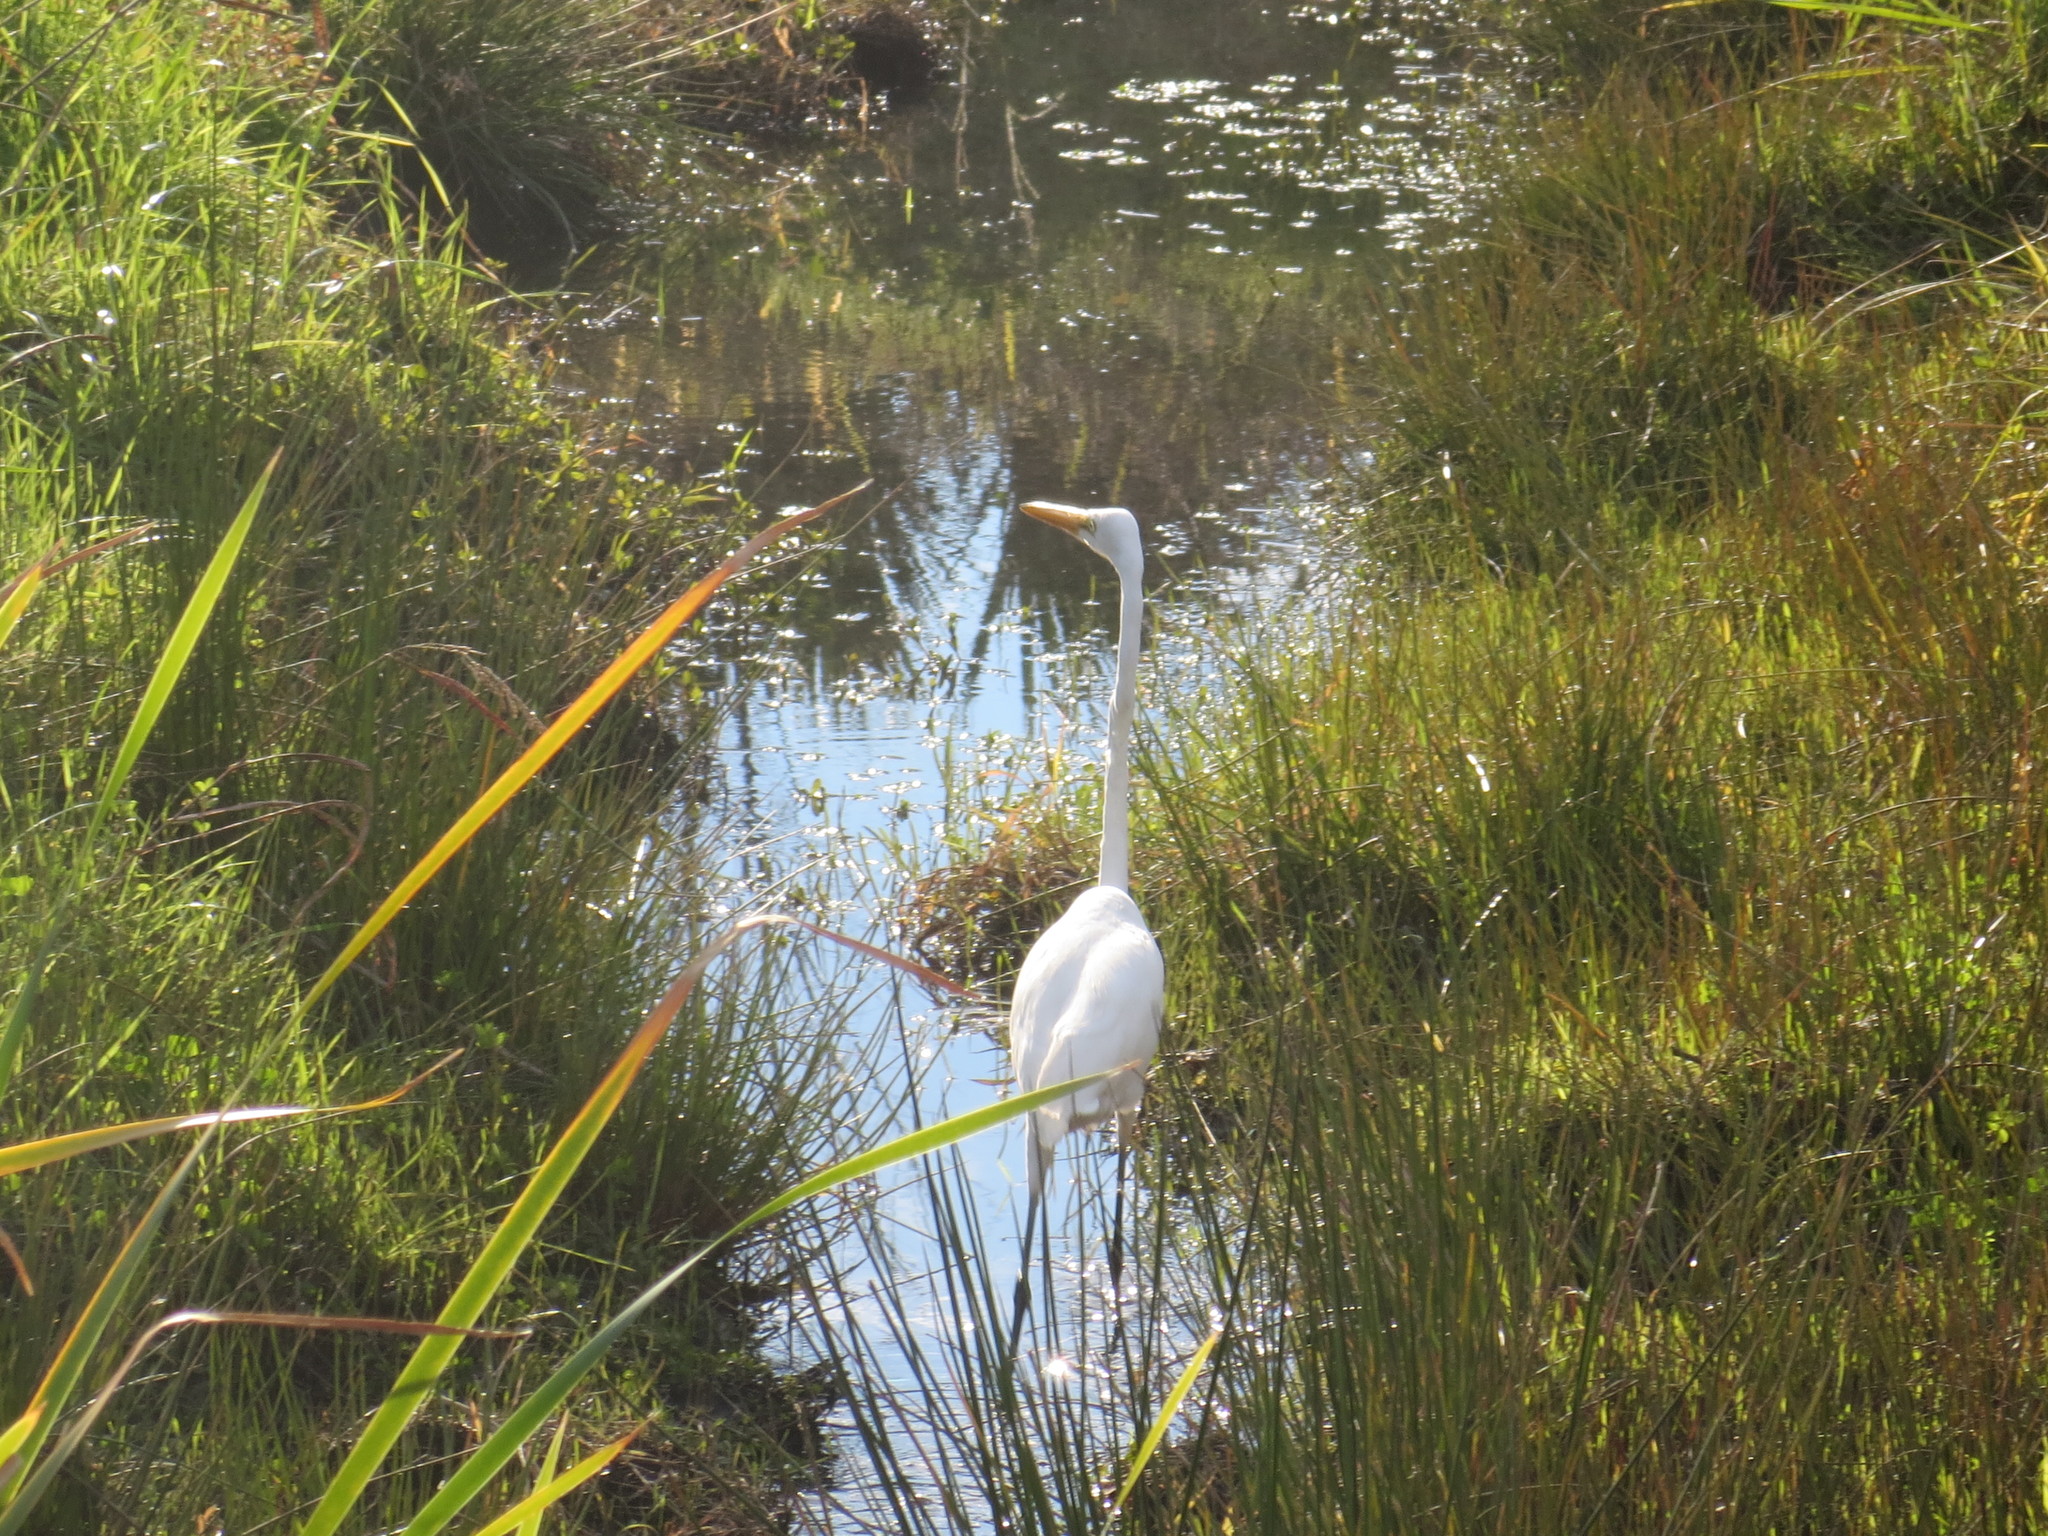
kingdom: Animalia
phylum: Chordata
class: Aves
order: Pelecaniformes
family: Ardeidae
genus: Ardea
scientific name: Ardea alba
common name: Great egret
